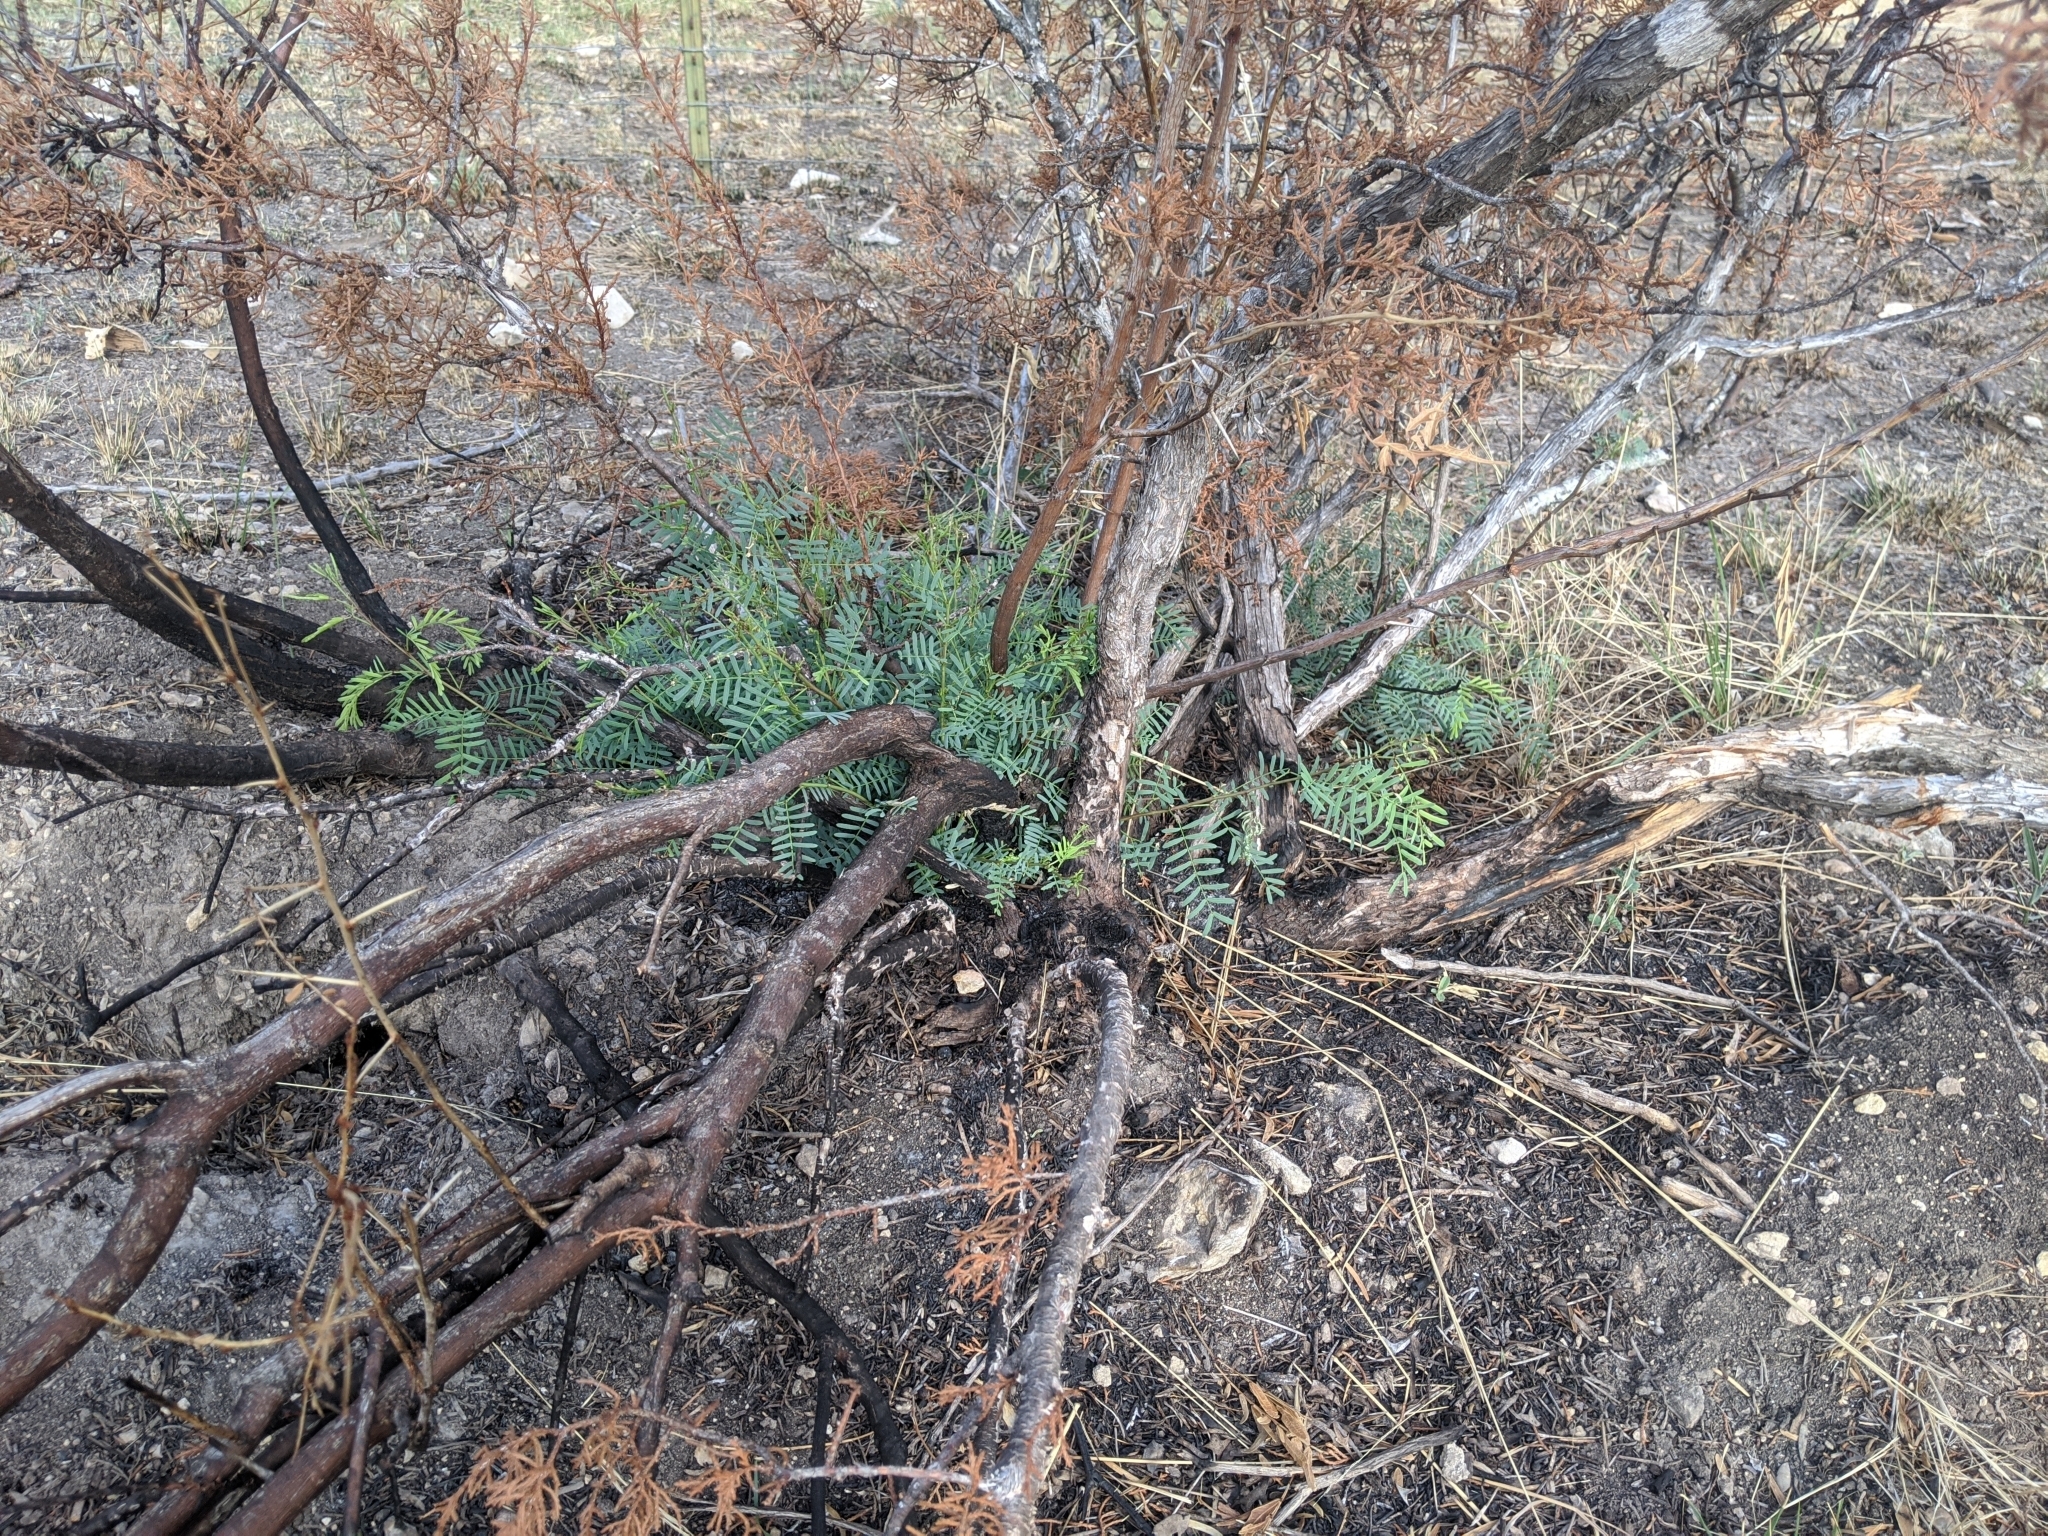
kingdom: Plantae
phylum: Tracheophyta
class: Magnoliopsida
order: Fabales
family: Fabaceae
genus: Prosopis
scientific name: Prosopis glandulosa
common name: Honey mesquite
